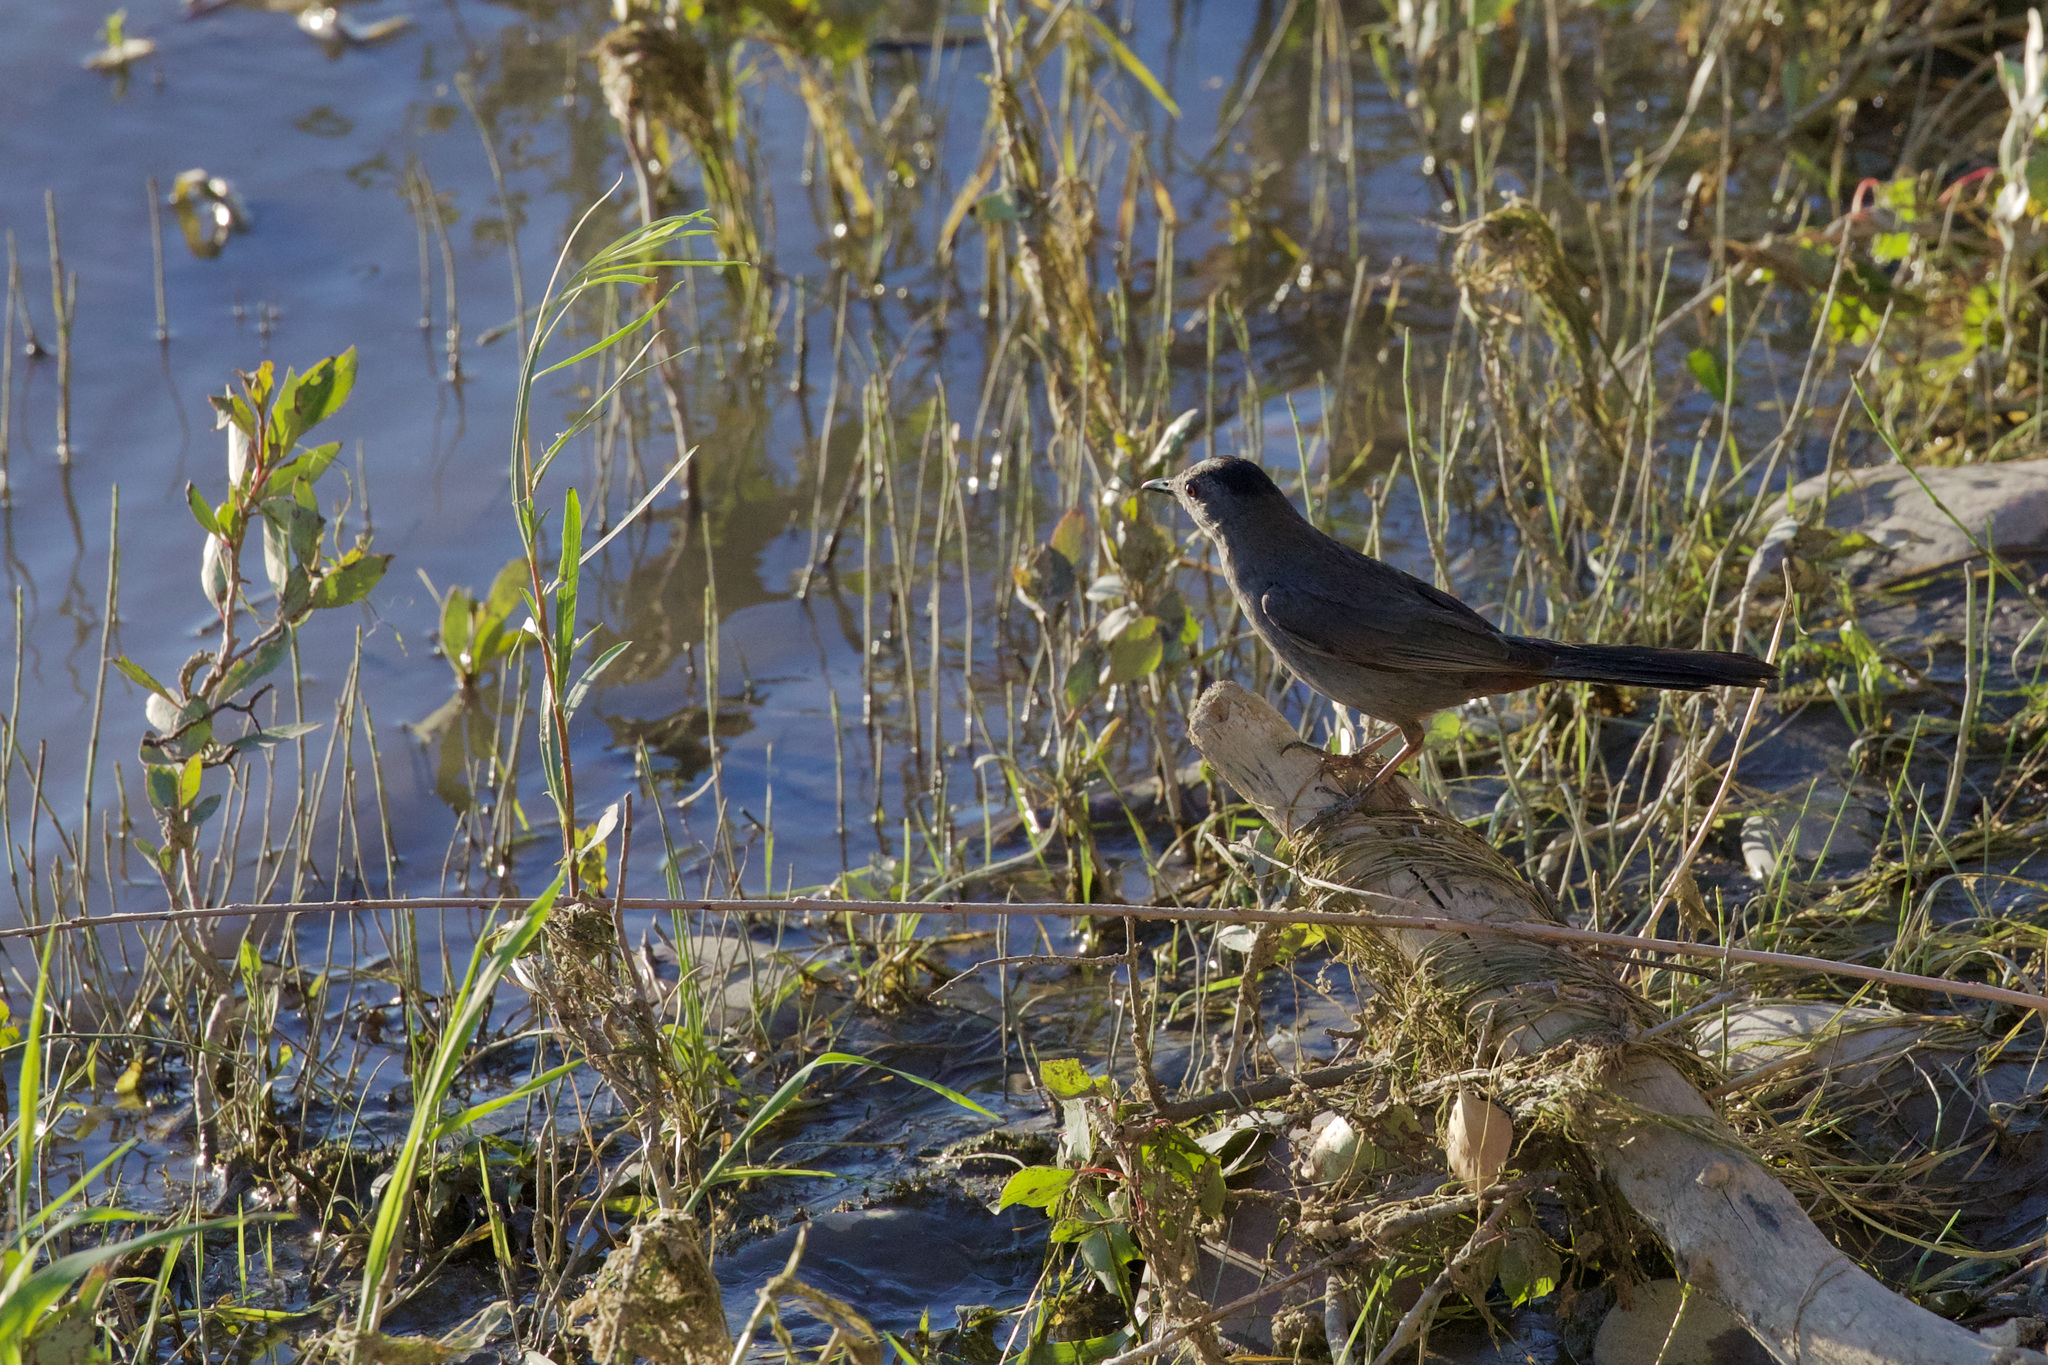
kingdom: Animalia
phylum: Chordata
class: Aves
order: Passeriformes
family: Mimidae
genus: Dumetella
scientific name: Dumetella carolinensis
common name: Gray catbird
